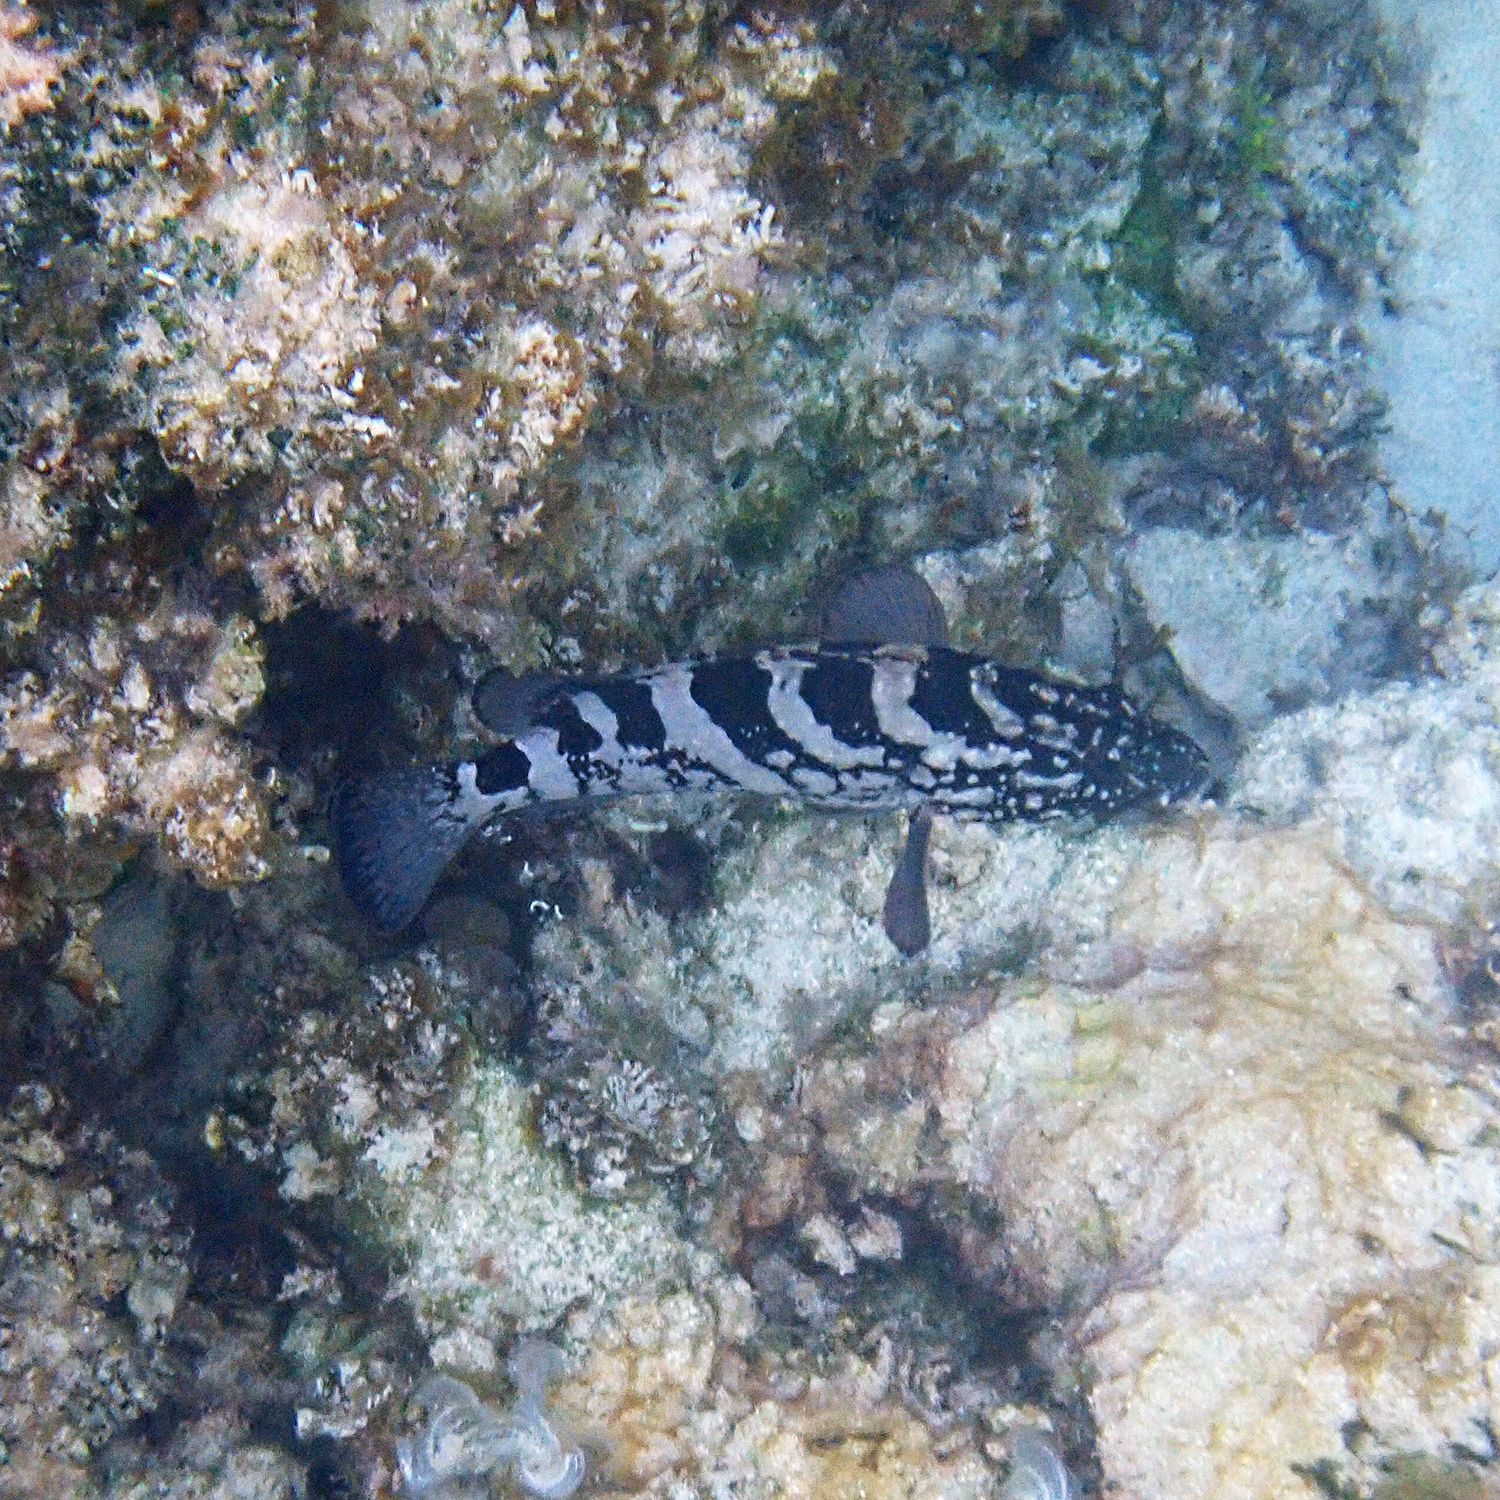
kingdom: Animalia
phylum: Chordata
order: Perciformes
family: Serranidae
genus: Epinephelus
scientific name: Epinephelus daemelii
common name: Saddletail grouper
